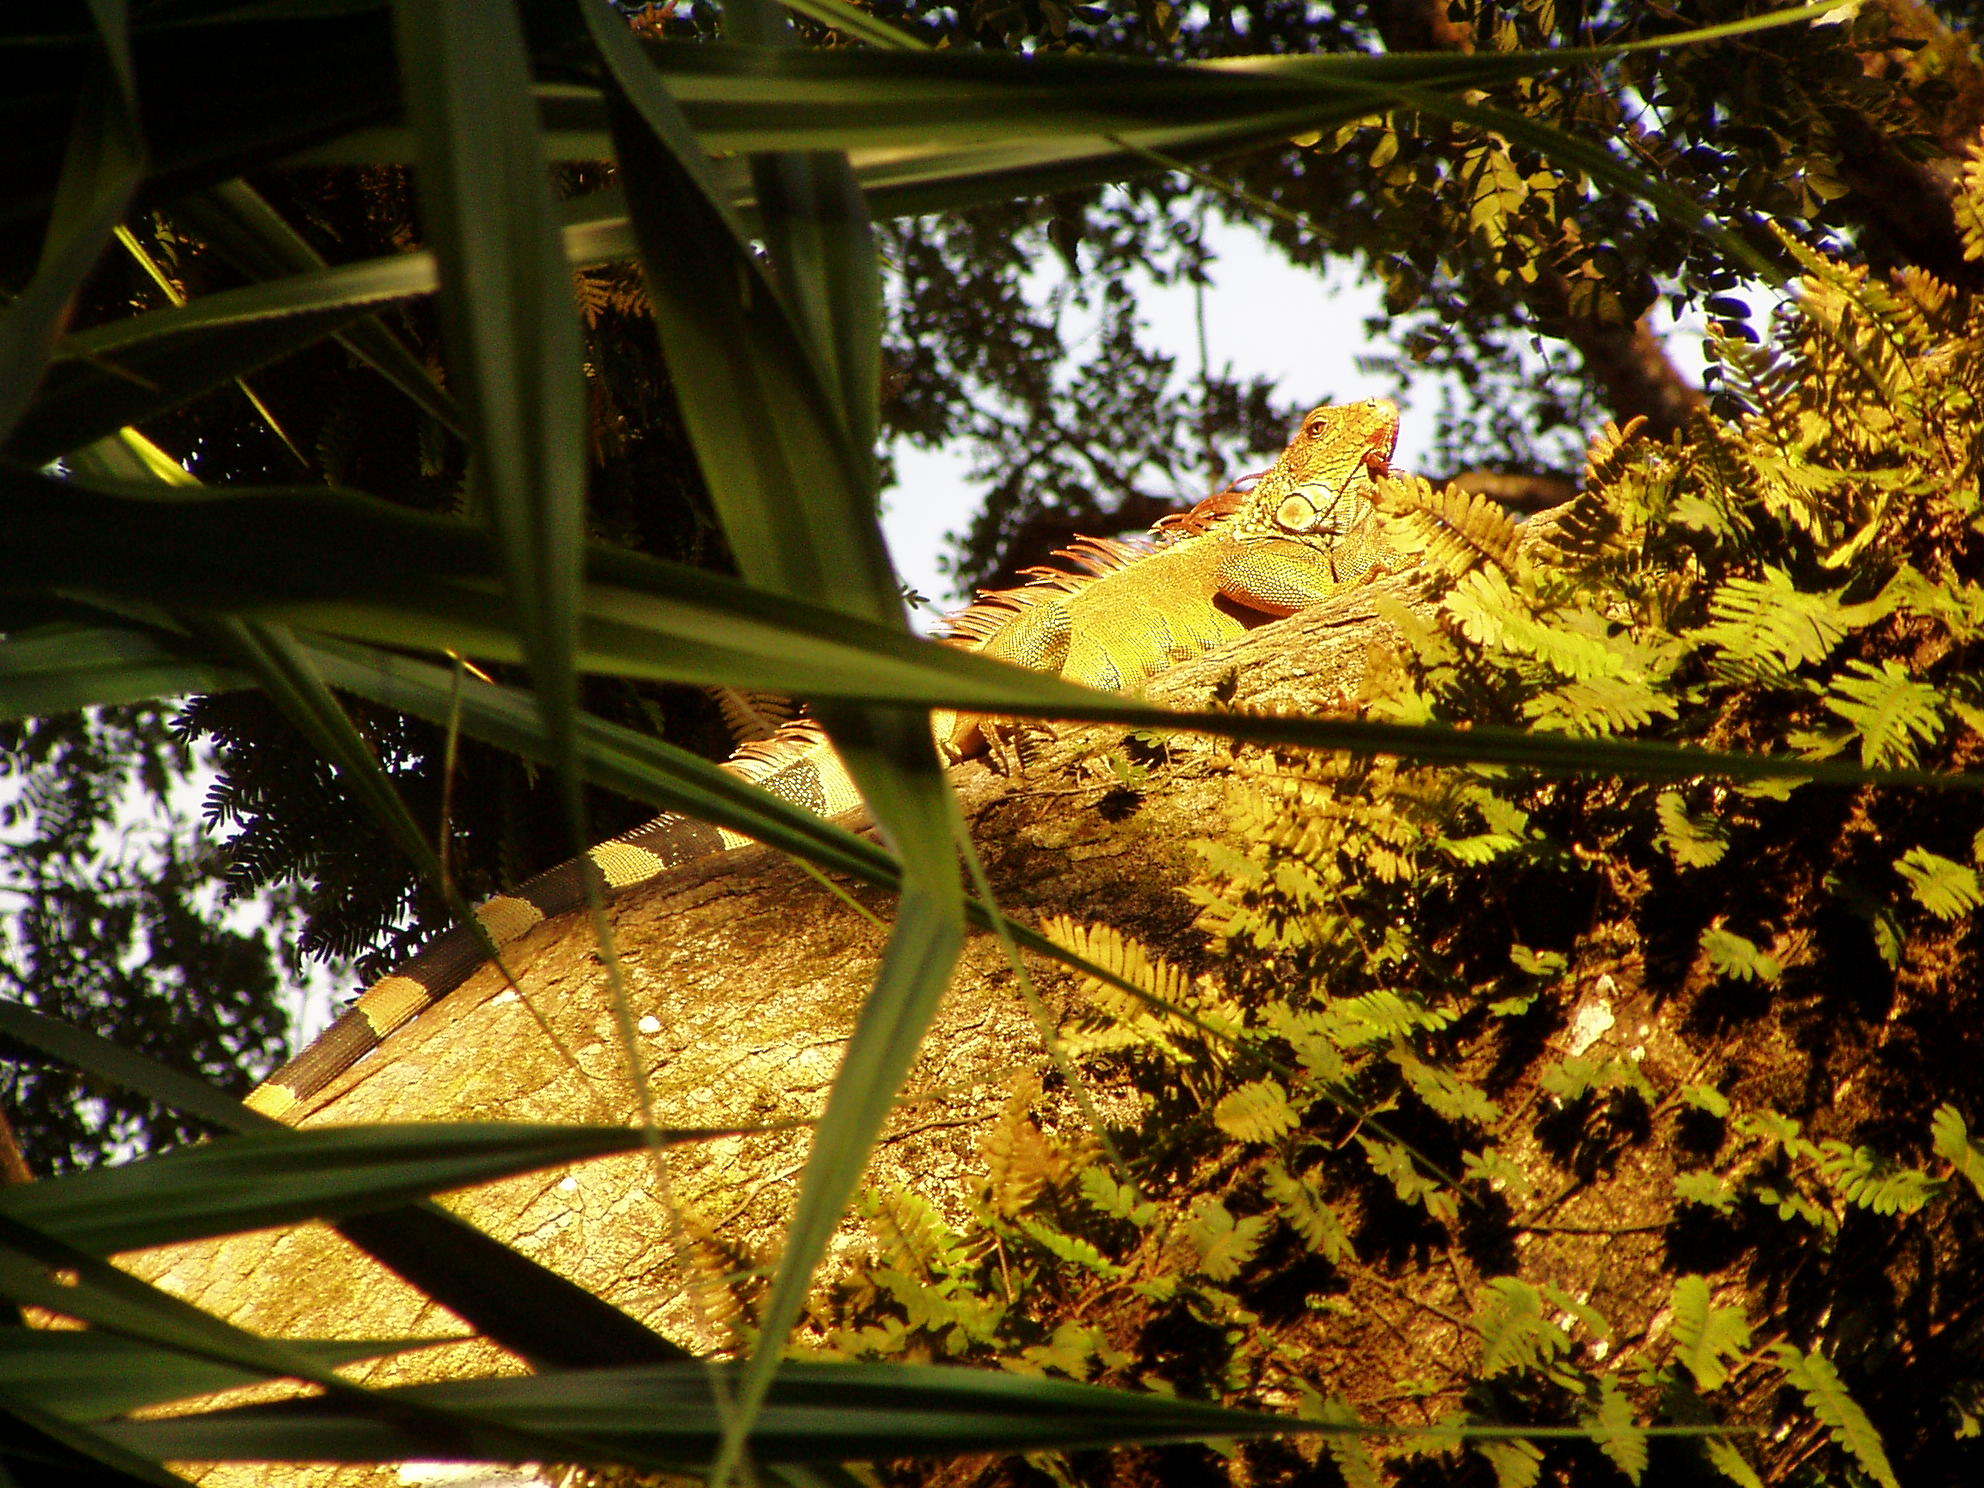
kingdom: Animalia
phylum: Chordata
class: Squamata
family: Iguanidae
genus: Iguana
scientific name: Iguana iguana
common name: Green iguana
